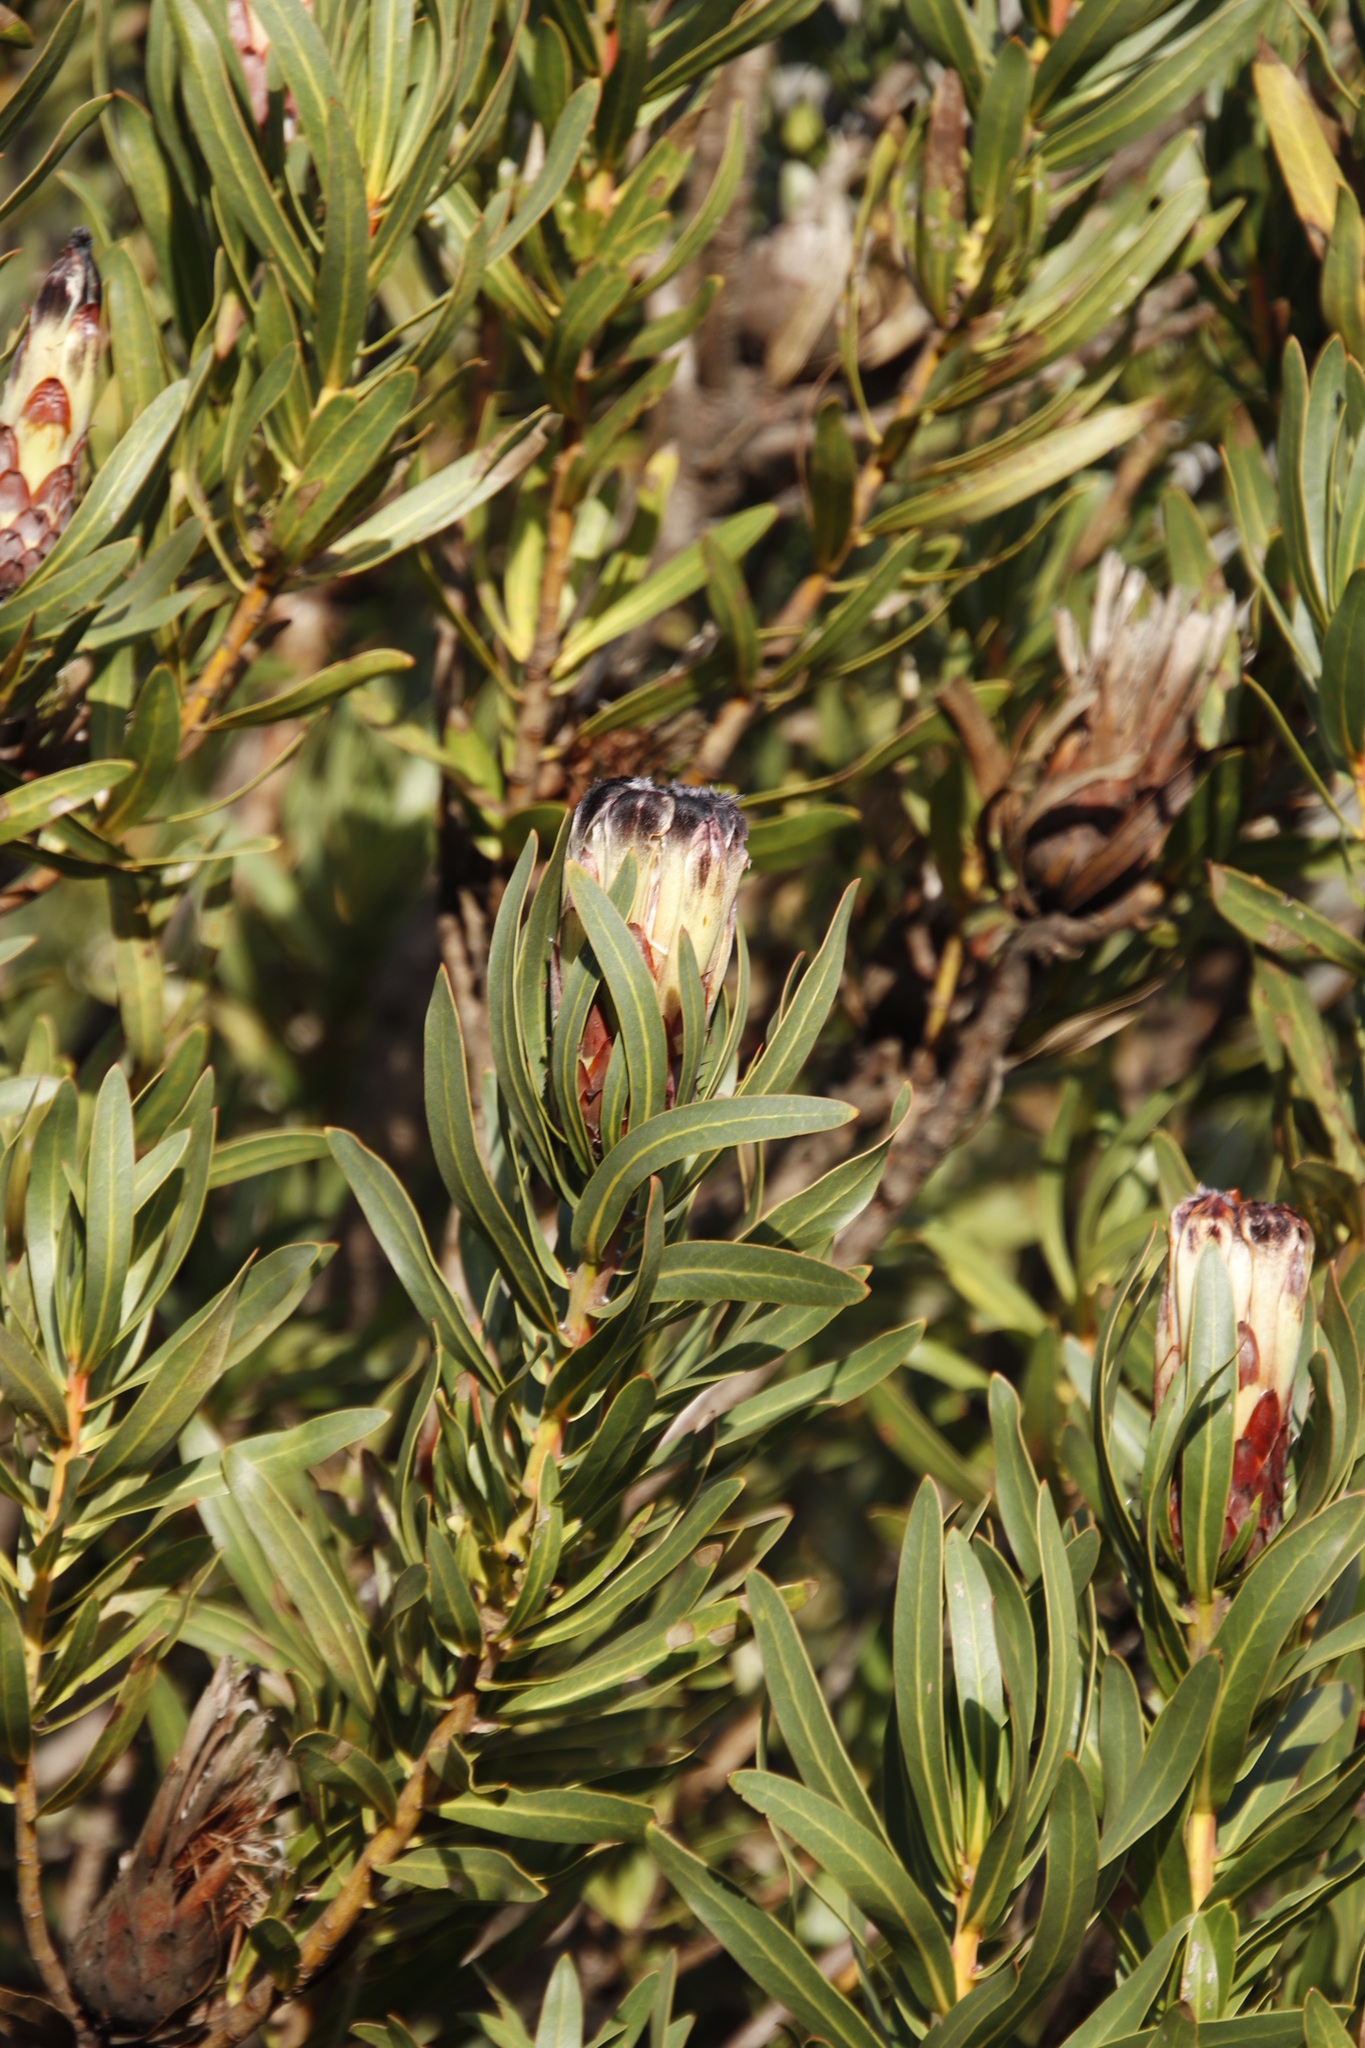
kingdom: Plantae
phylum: Tracheophyta
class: Magnoliopsida
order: Proteales
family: Proteaceae
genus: Protea
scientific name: Protea lepidocarpodendron
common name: Black-bearded protea
